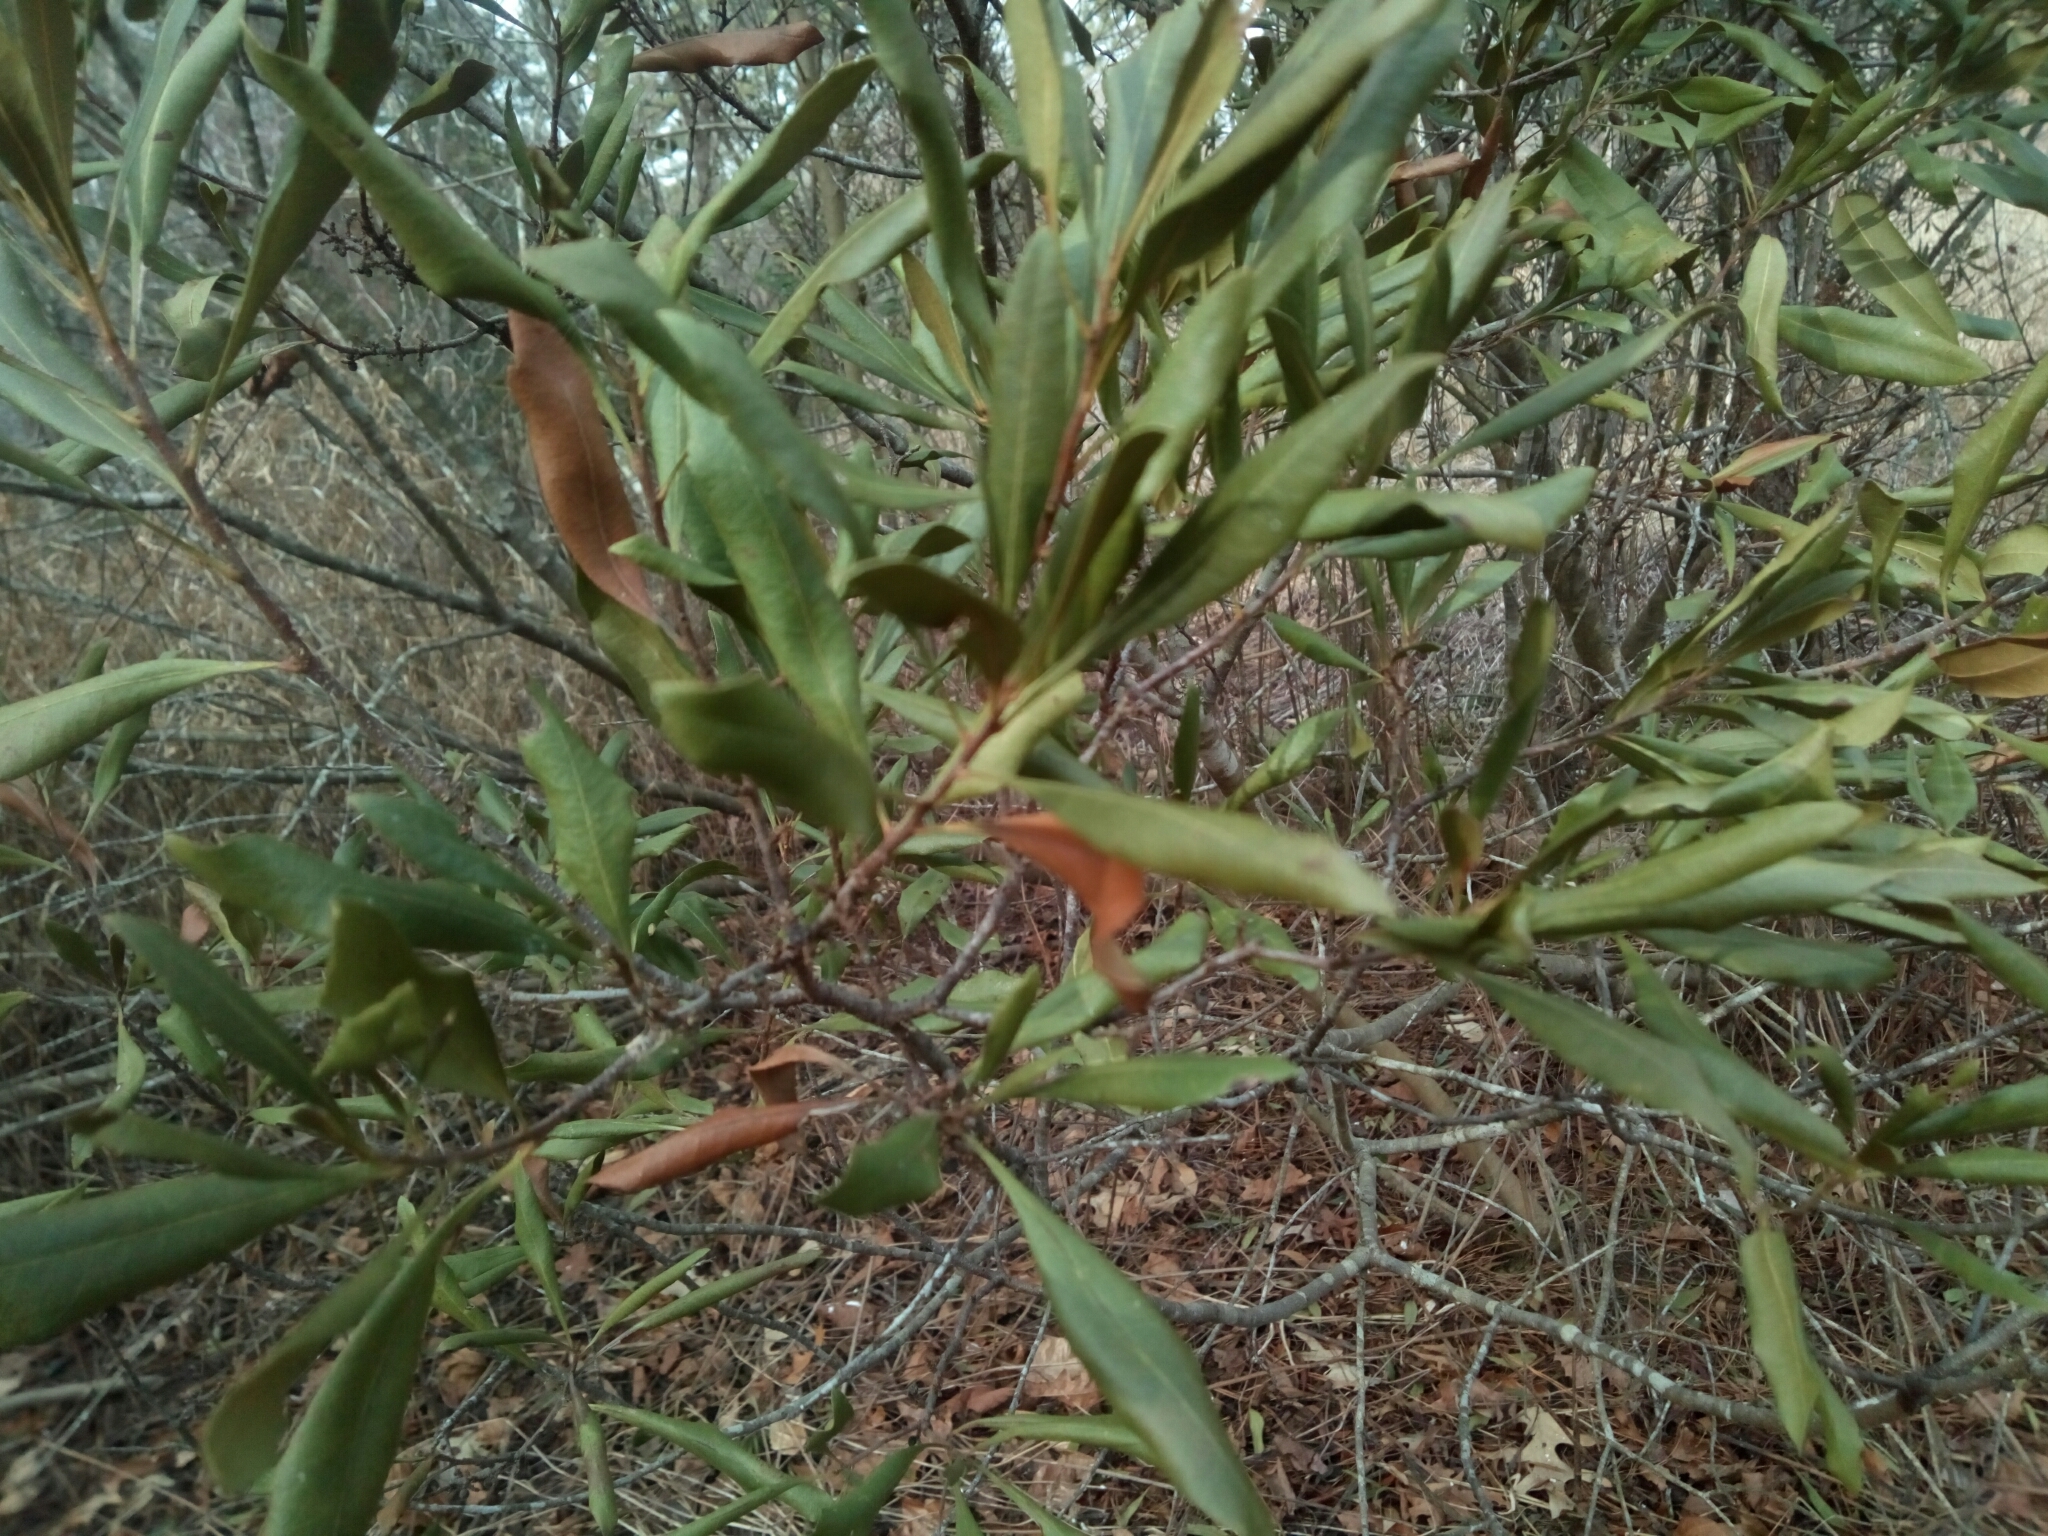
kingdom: Plantae
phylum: Tracheophyta
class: Magnoliopsida
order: Fagales
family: Myricaceae
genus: Morella
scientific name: Morella cerifera
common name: Wax myrtle
